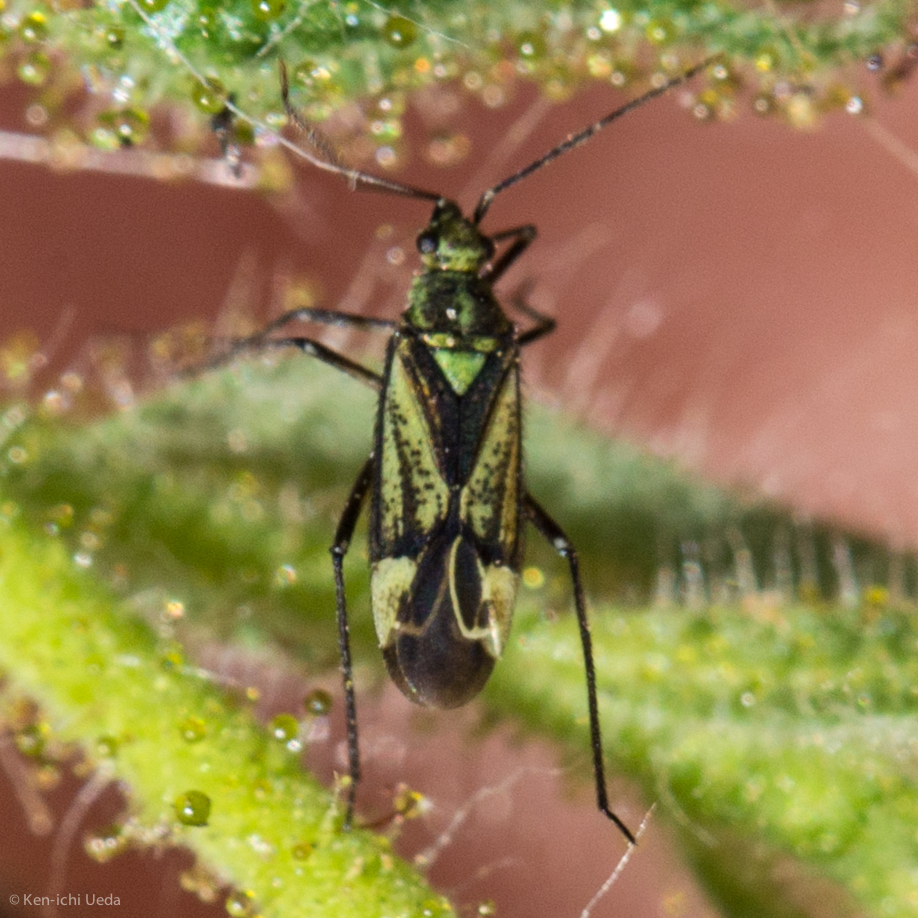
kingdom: Animalia
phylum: Arthropoda
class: Insecta
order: Hemiptera
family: Miridae
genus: Macrotylus
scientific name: Macrotylus intermedius
